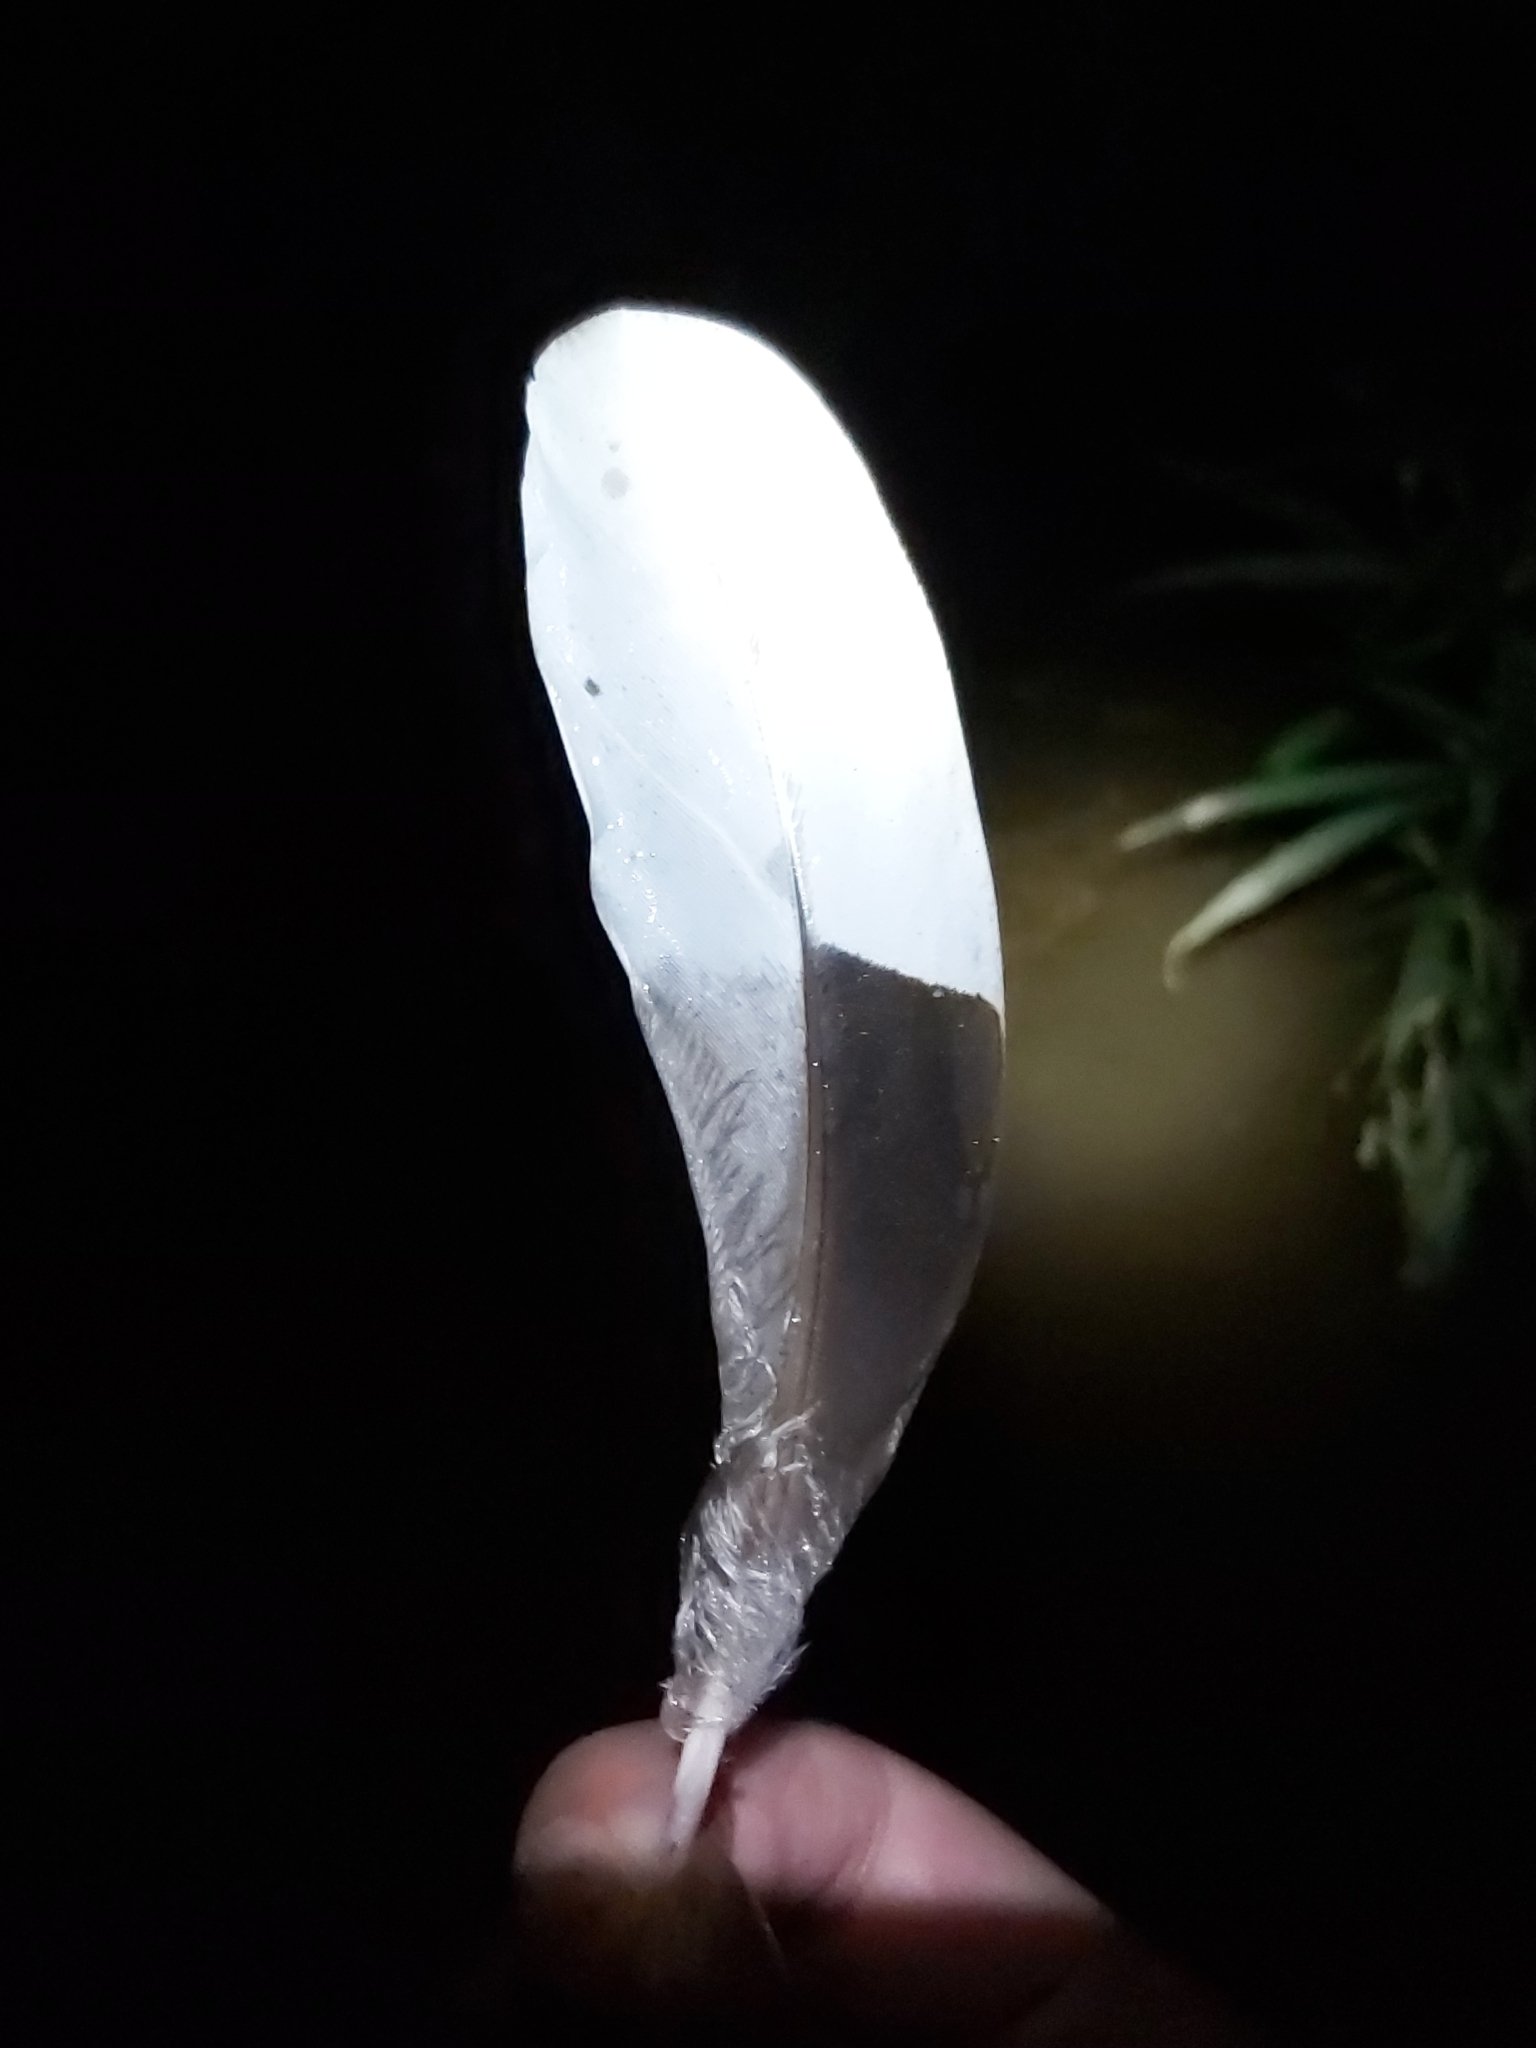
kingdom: Animalia
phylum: Chordata
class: Aves
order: Anseriformes
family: Anatidae
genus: Chenonetta
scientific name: Chenonetta jubata
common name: Maned duck
